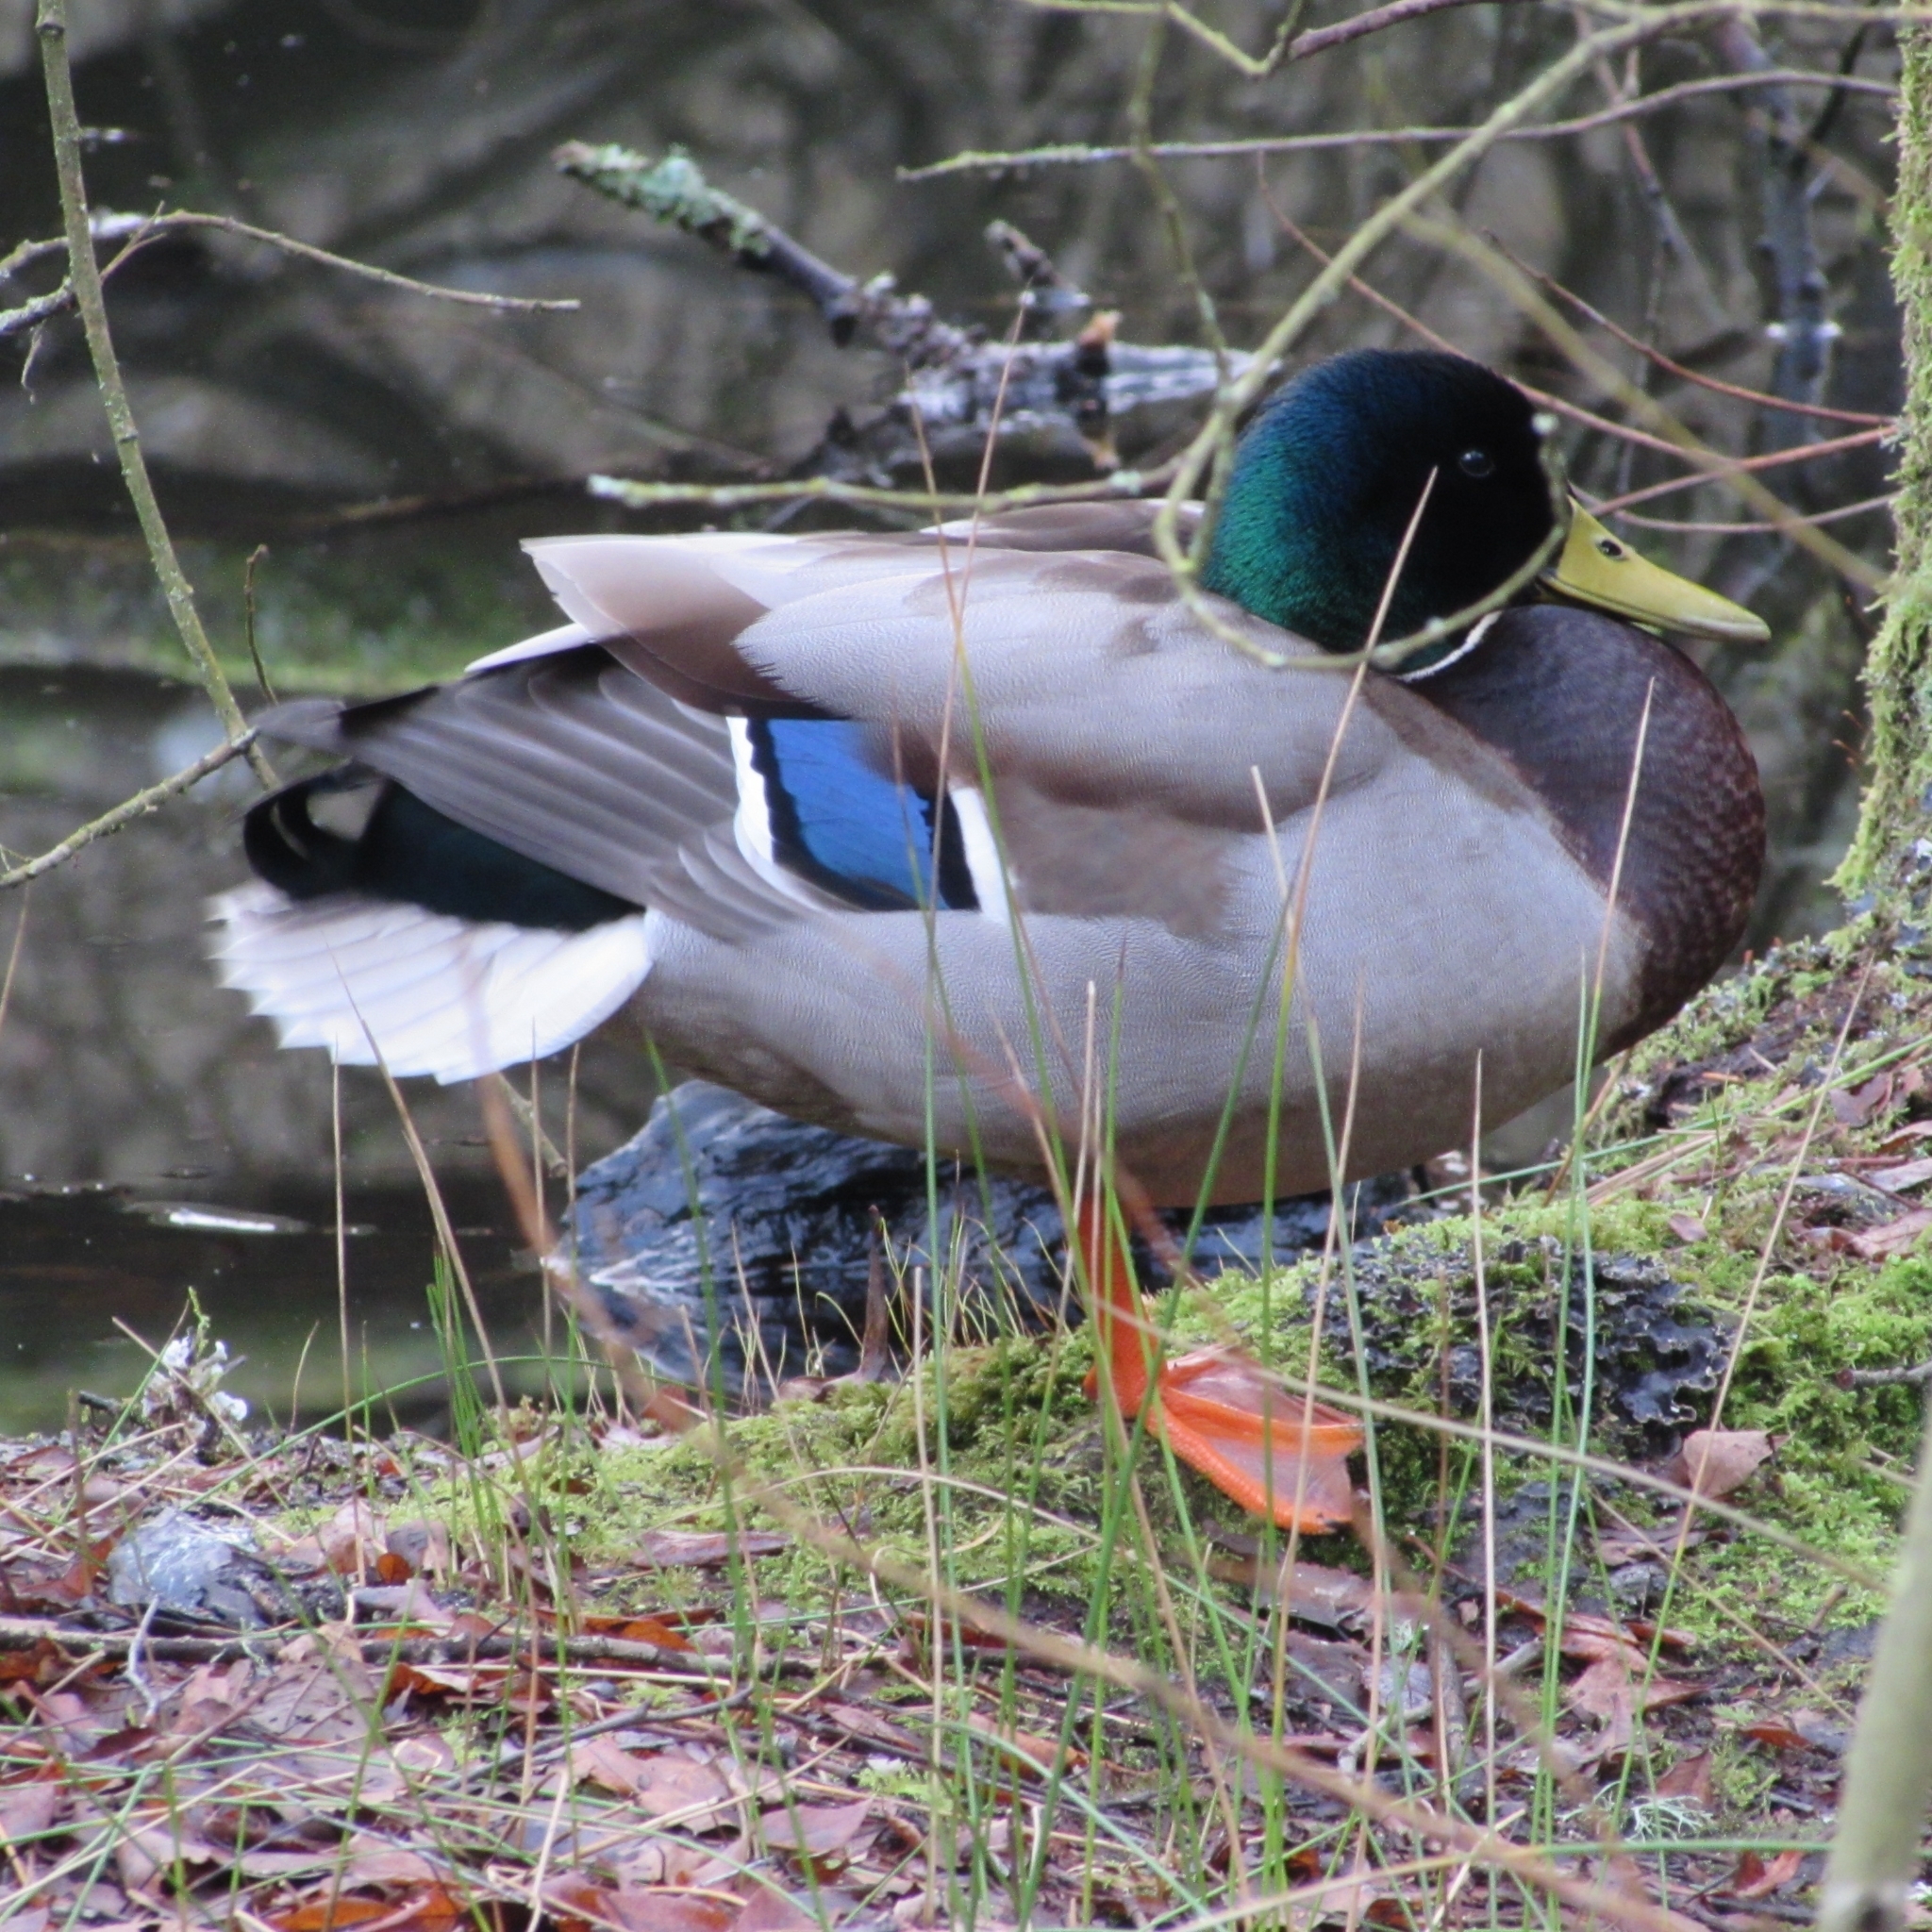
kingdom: Animalia
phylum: Chordata
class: Aves
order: Anseriformes
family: Anatidae
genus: Anas
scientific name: Anas platyrhynchos
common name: Mallard
